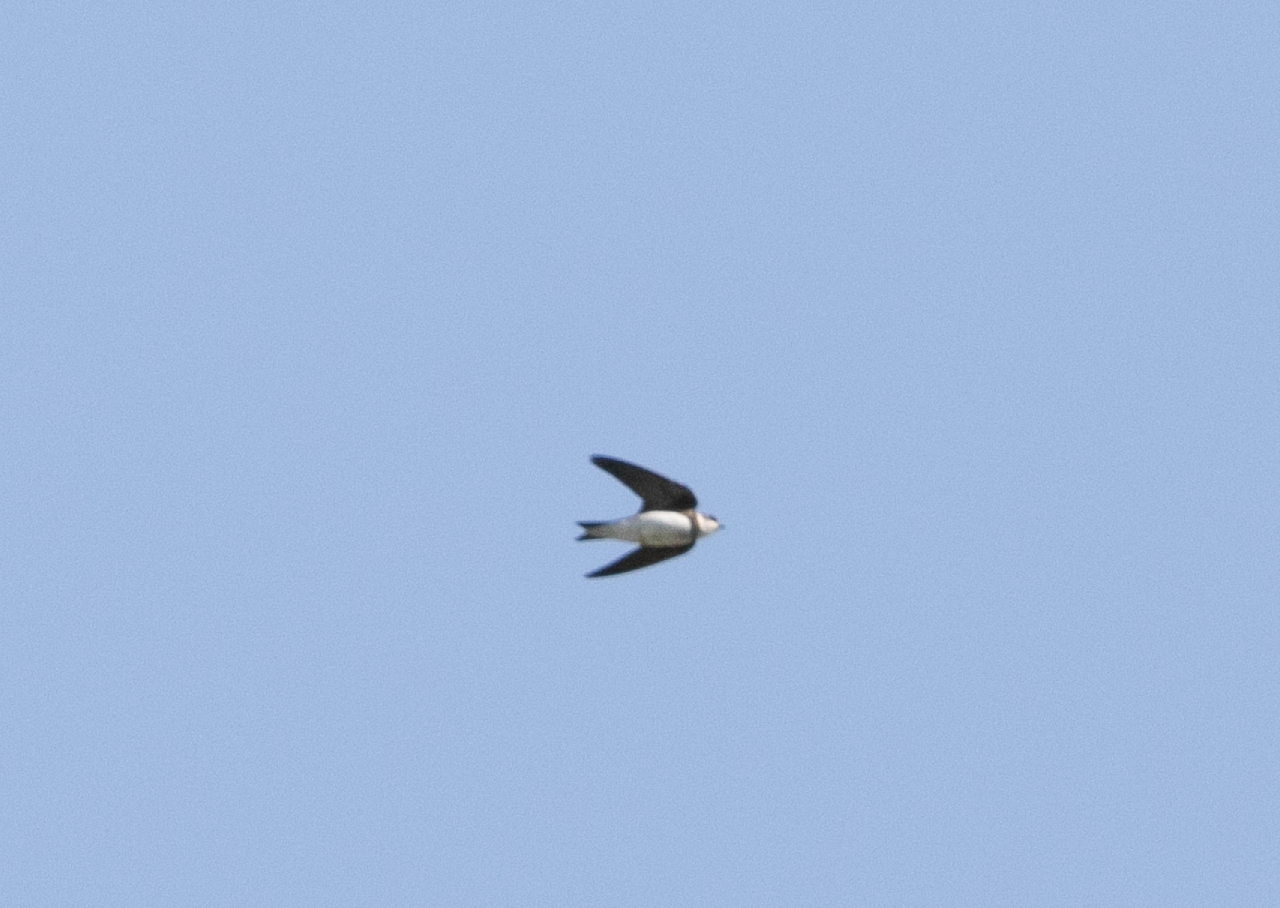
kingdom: Animalia
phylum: Chordata
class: Aves
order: Passeriformes
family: Hirundinidae
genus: Riparia
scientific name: Riparia riparia
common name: Sand martin
